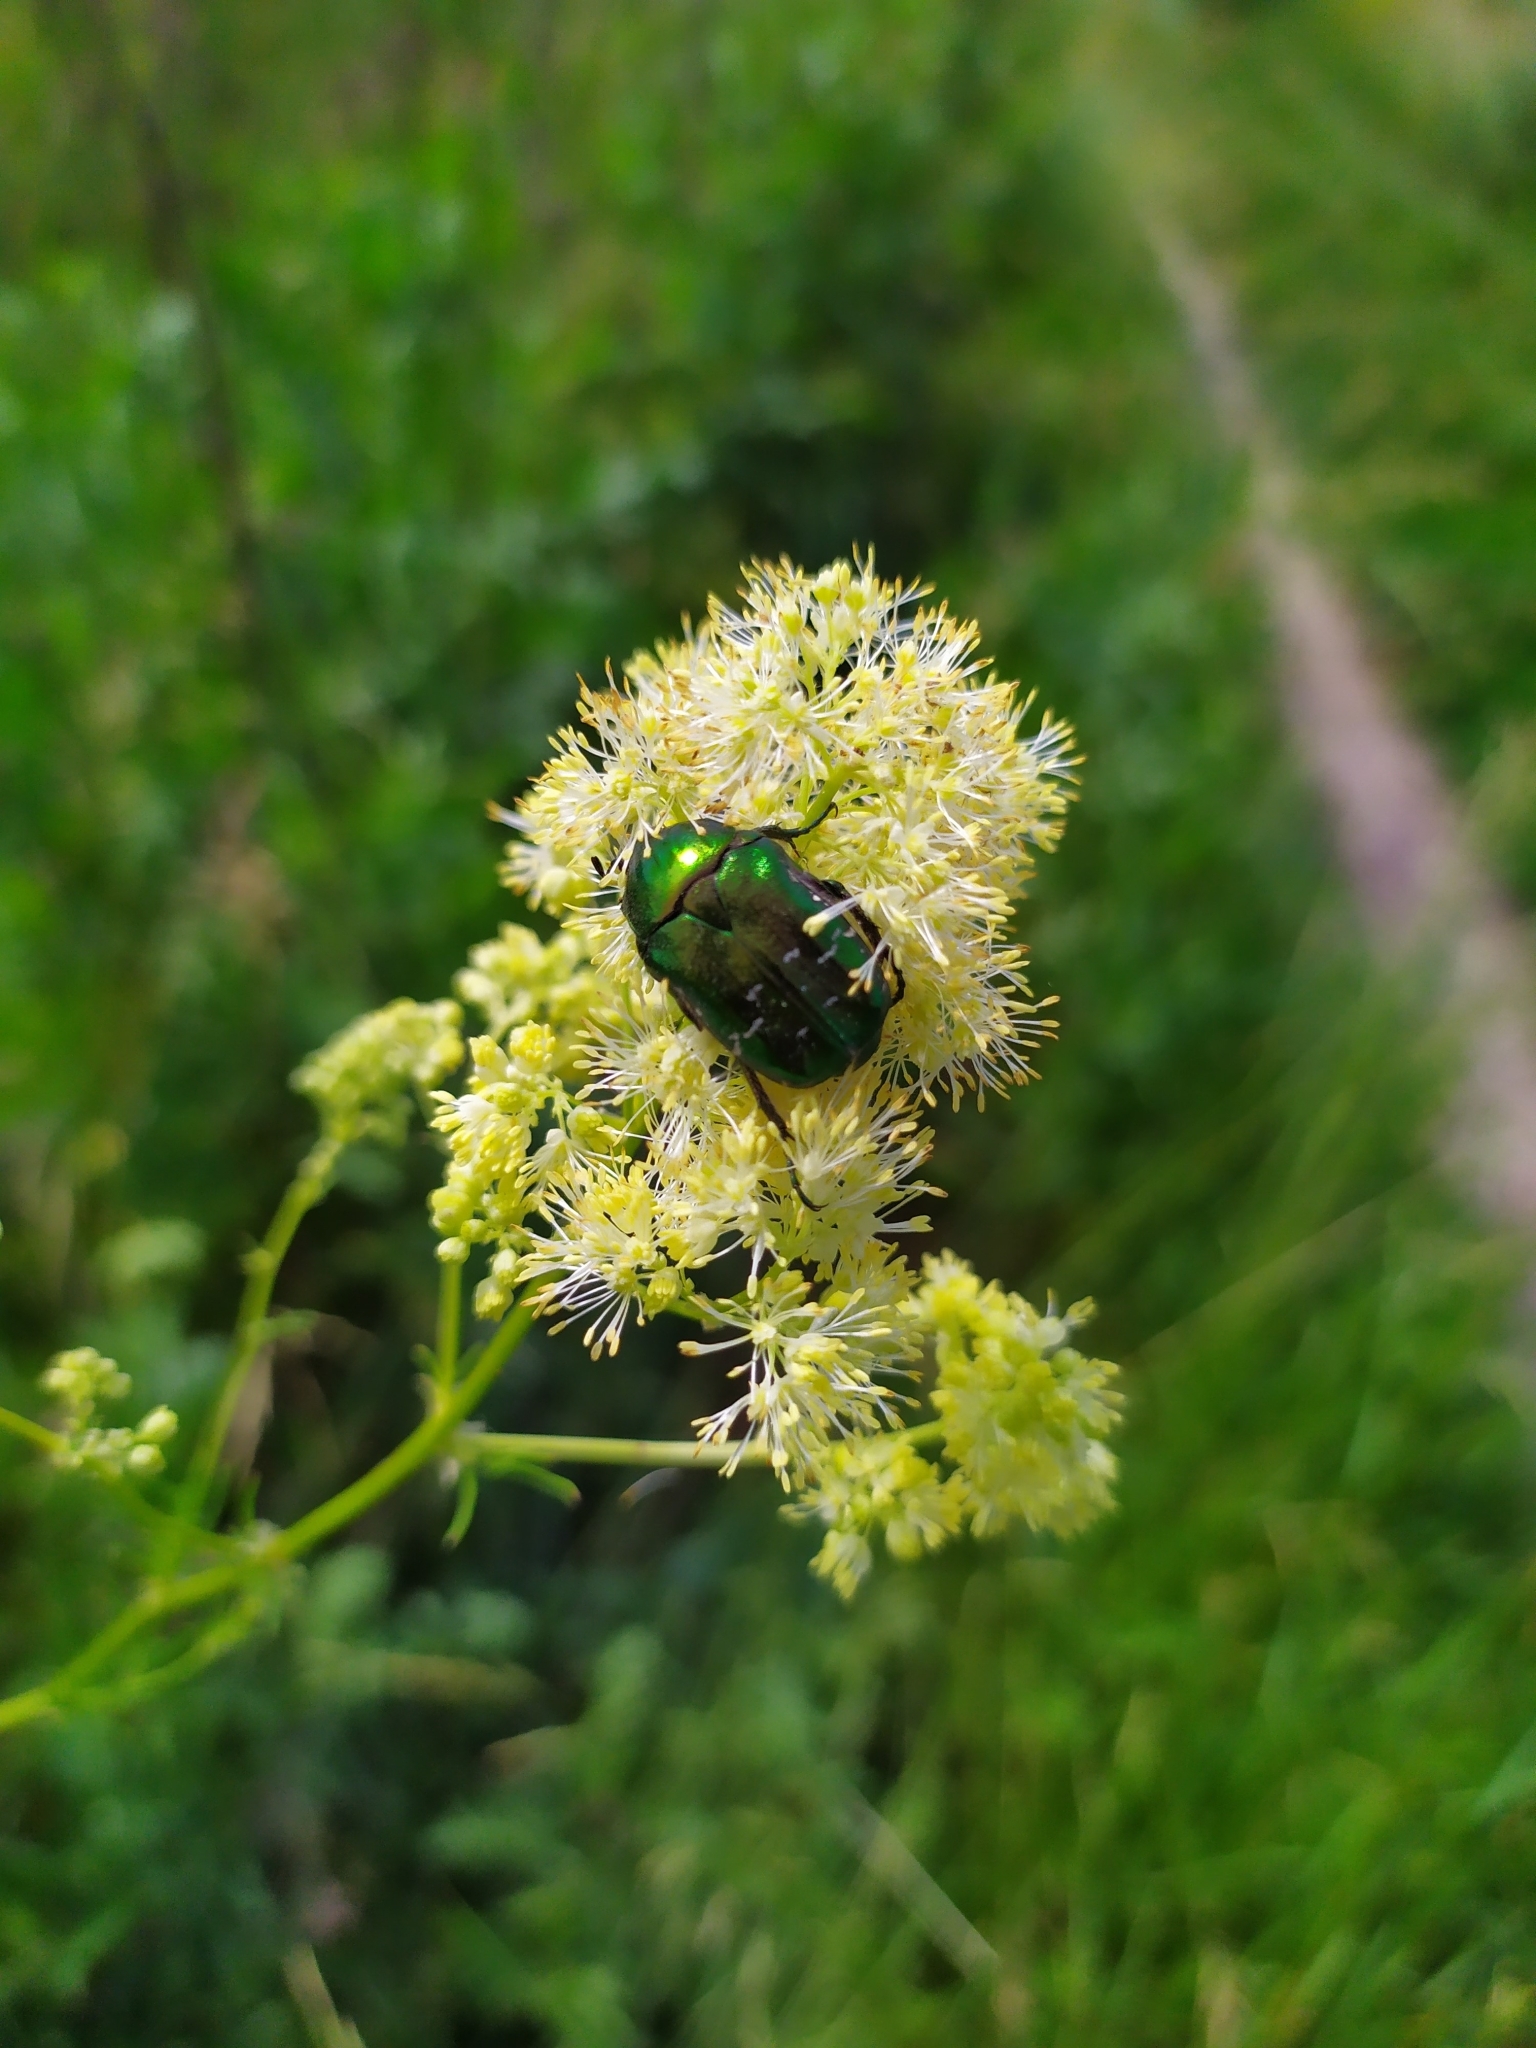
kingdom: Animalia
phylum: Arthropoda
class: Insecta
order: Coleoptera
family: Scarabaeidae
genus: Cetonia
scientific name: Cetonia aurata
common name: Rose chafer
